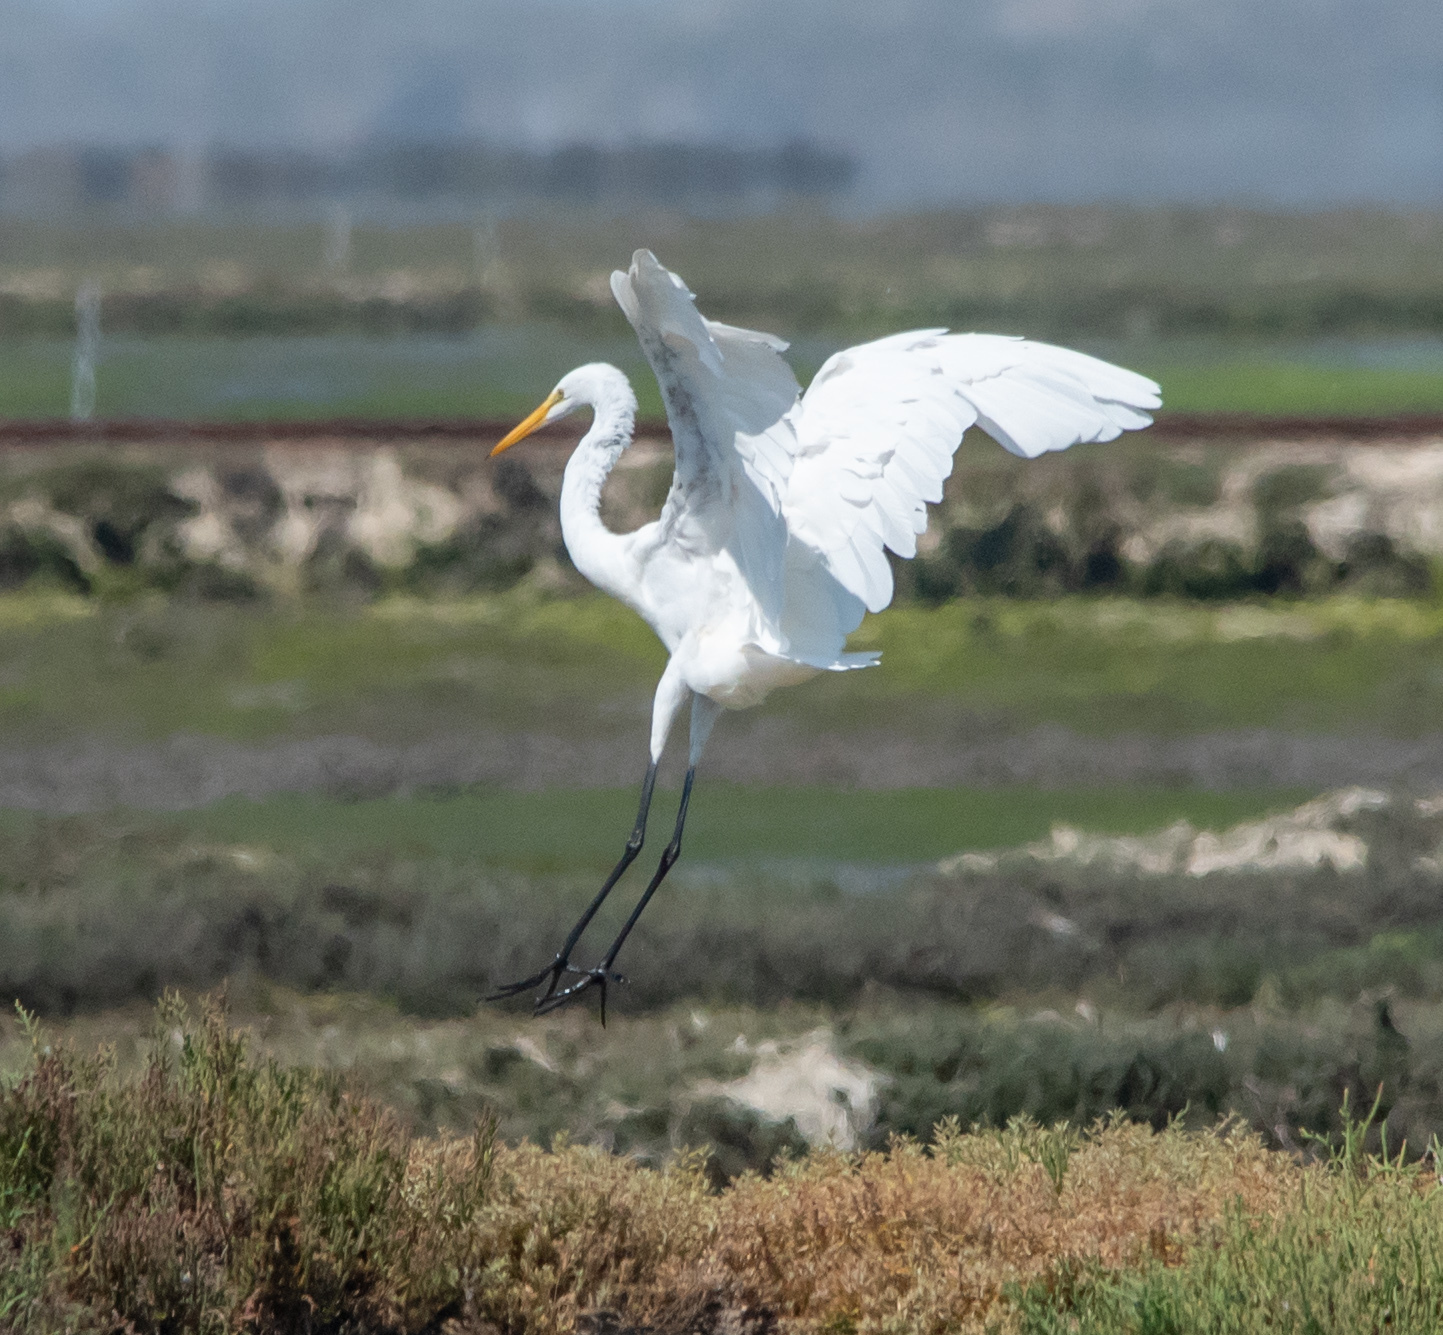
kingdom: Animalia
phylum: Chordata
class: Aves
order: Pelecaniformes
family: Ardeidae
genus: Ardea
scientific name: Ardea alba
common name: Great egret
